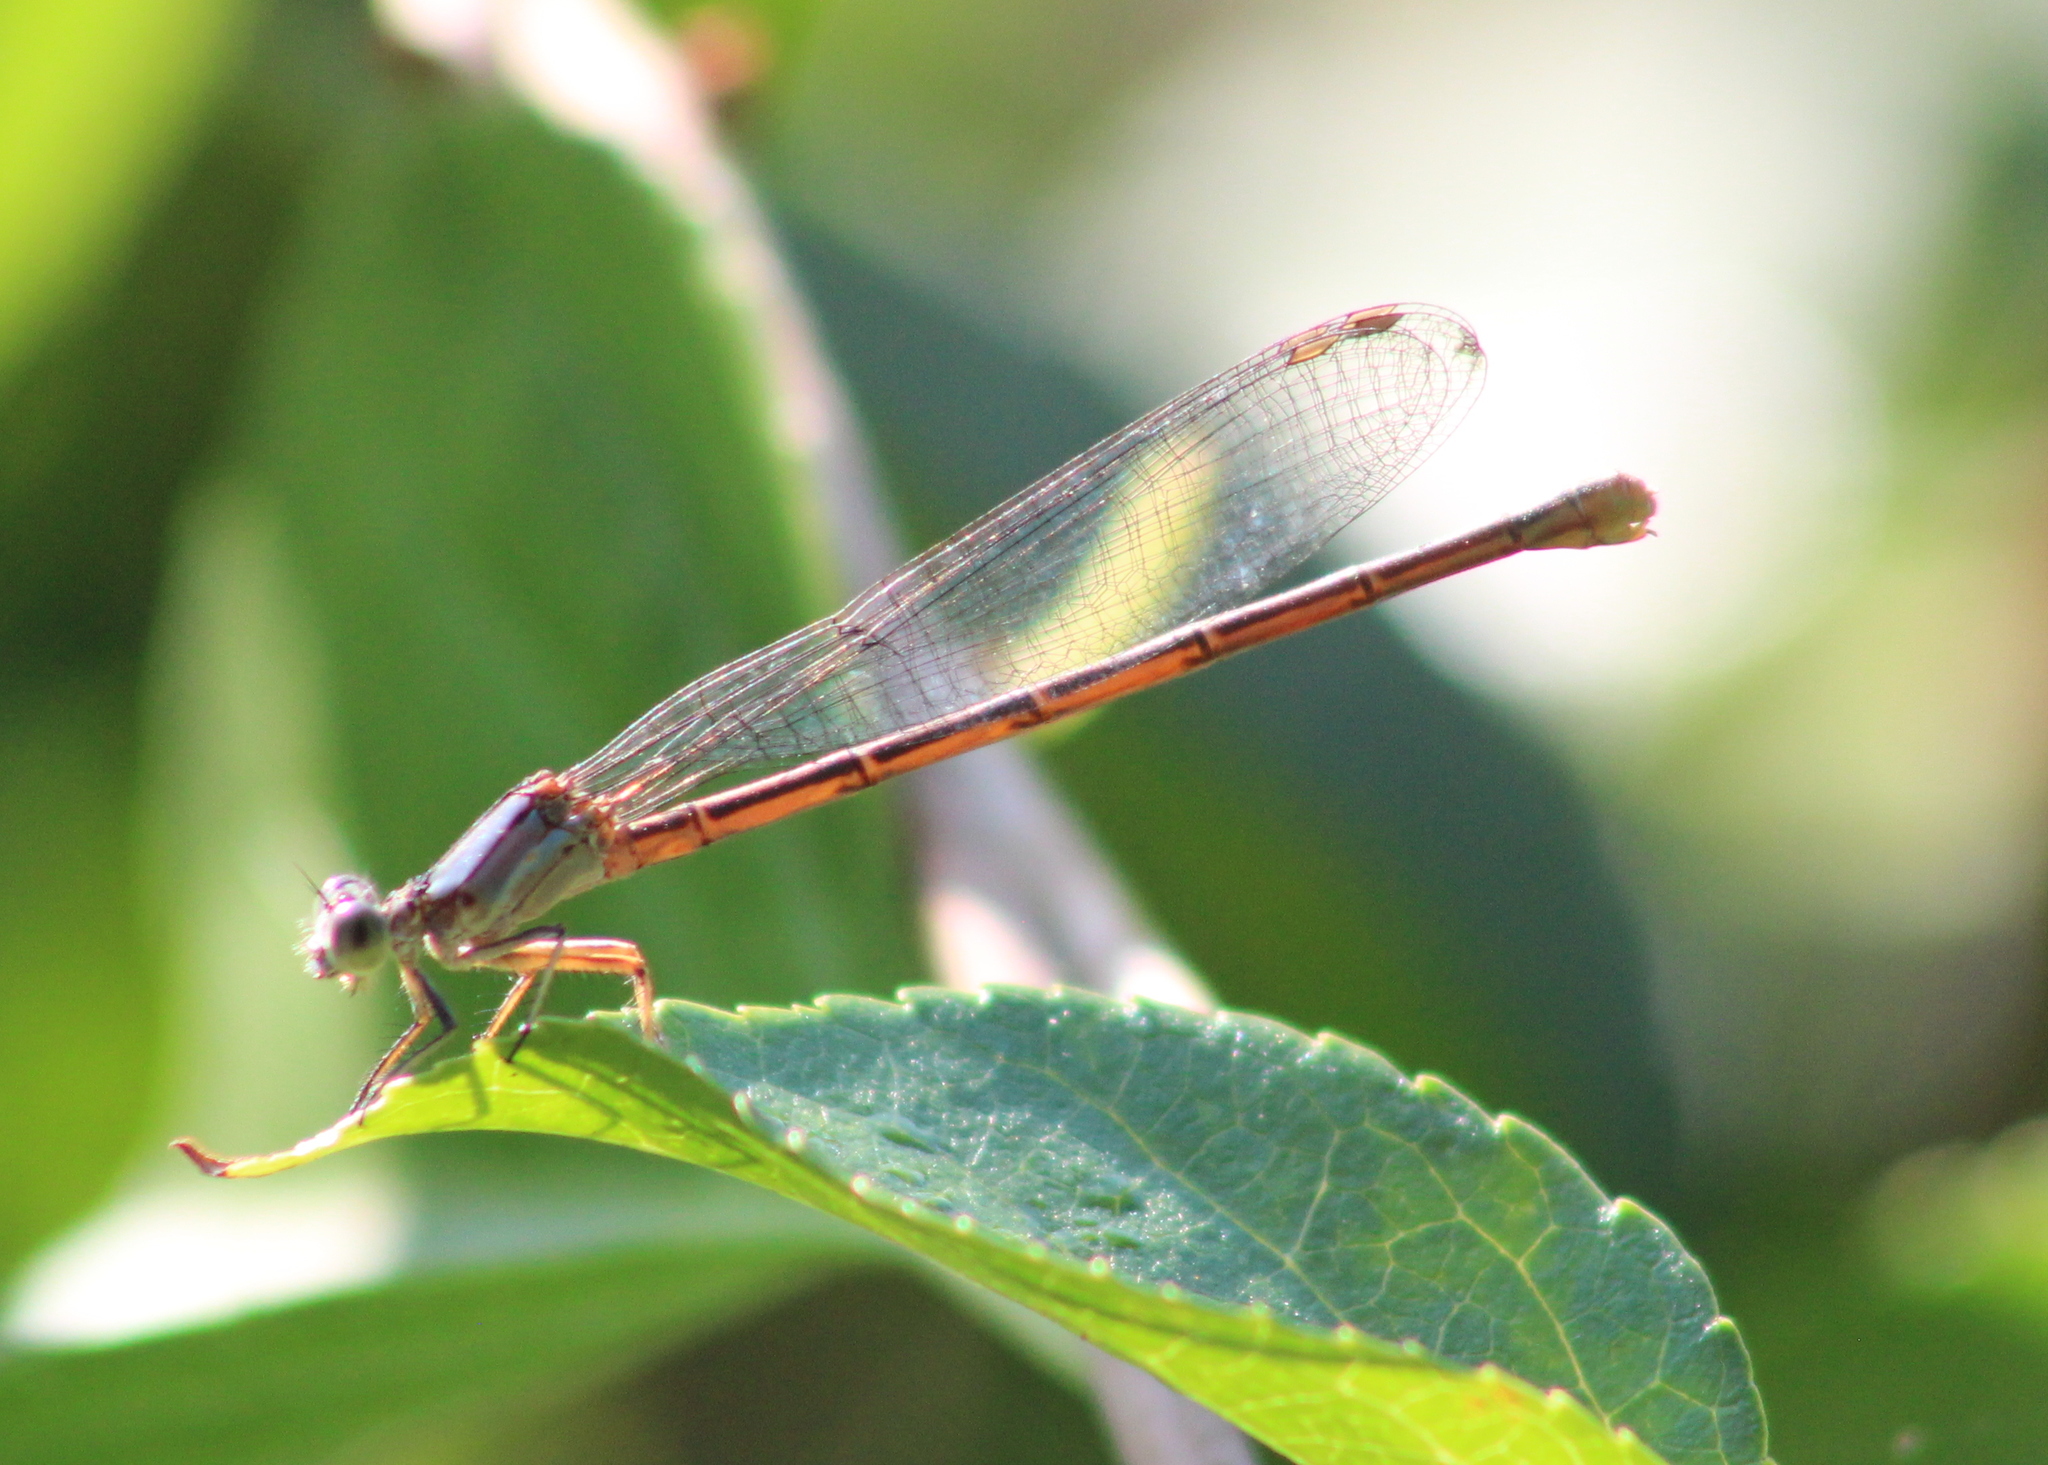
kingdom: Animalia
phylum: Arthropoda
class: Insecta
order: Odonata
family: Coenagrionidae
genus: Argia
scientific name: Argia moesta
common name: Powdered dancer
